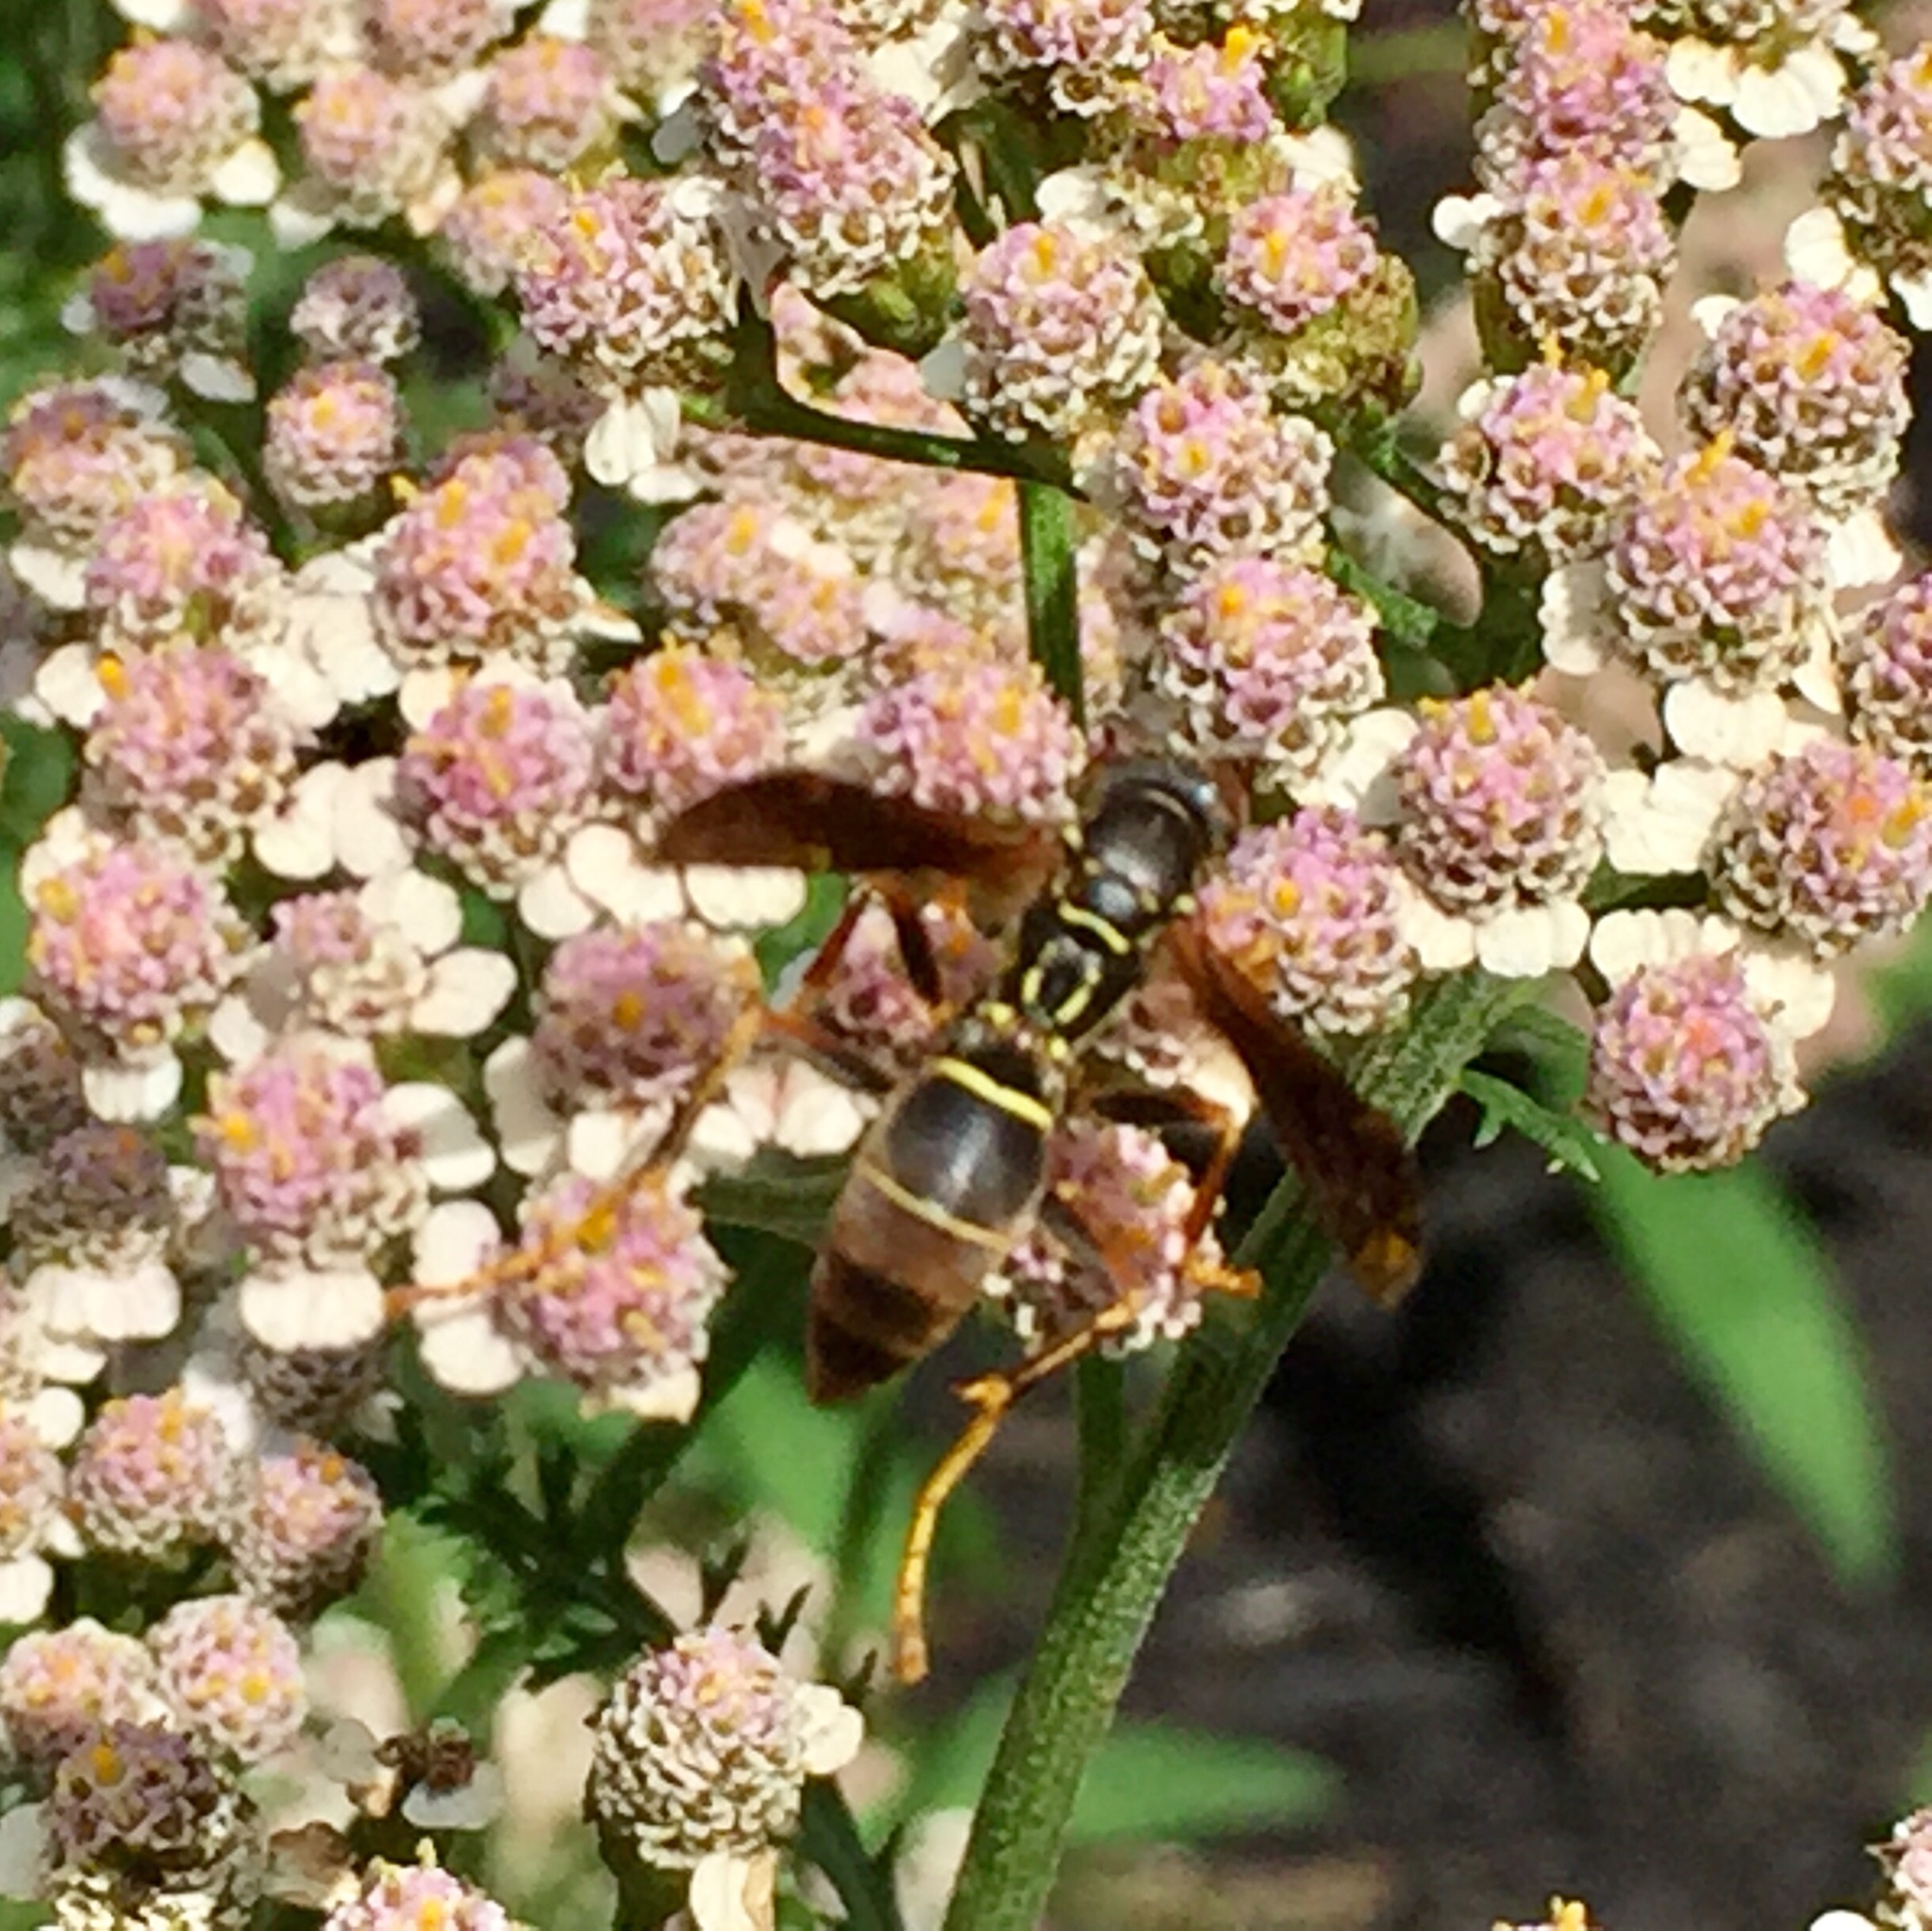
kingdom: Animalia
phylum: Arthropoda
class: Insecta
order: Hymenoptera
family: Eumenidae
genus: Polistes
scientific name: Polistes fuscatus
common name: Dark paper wasp
